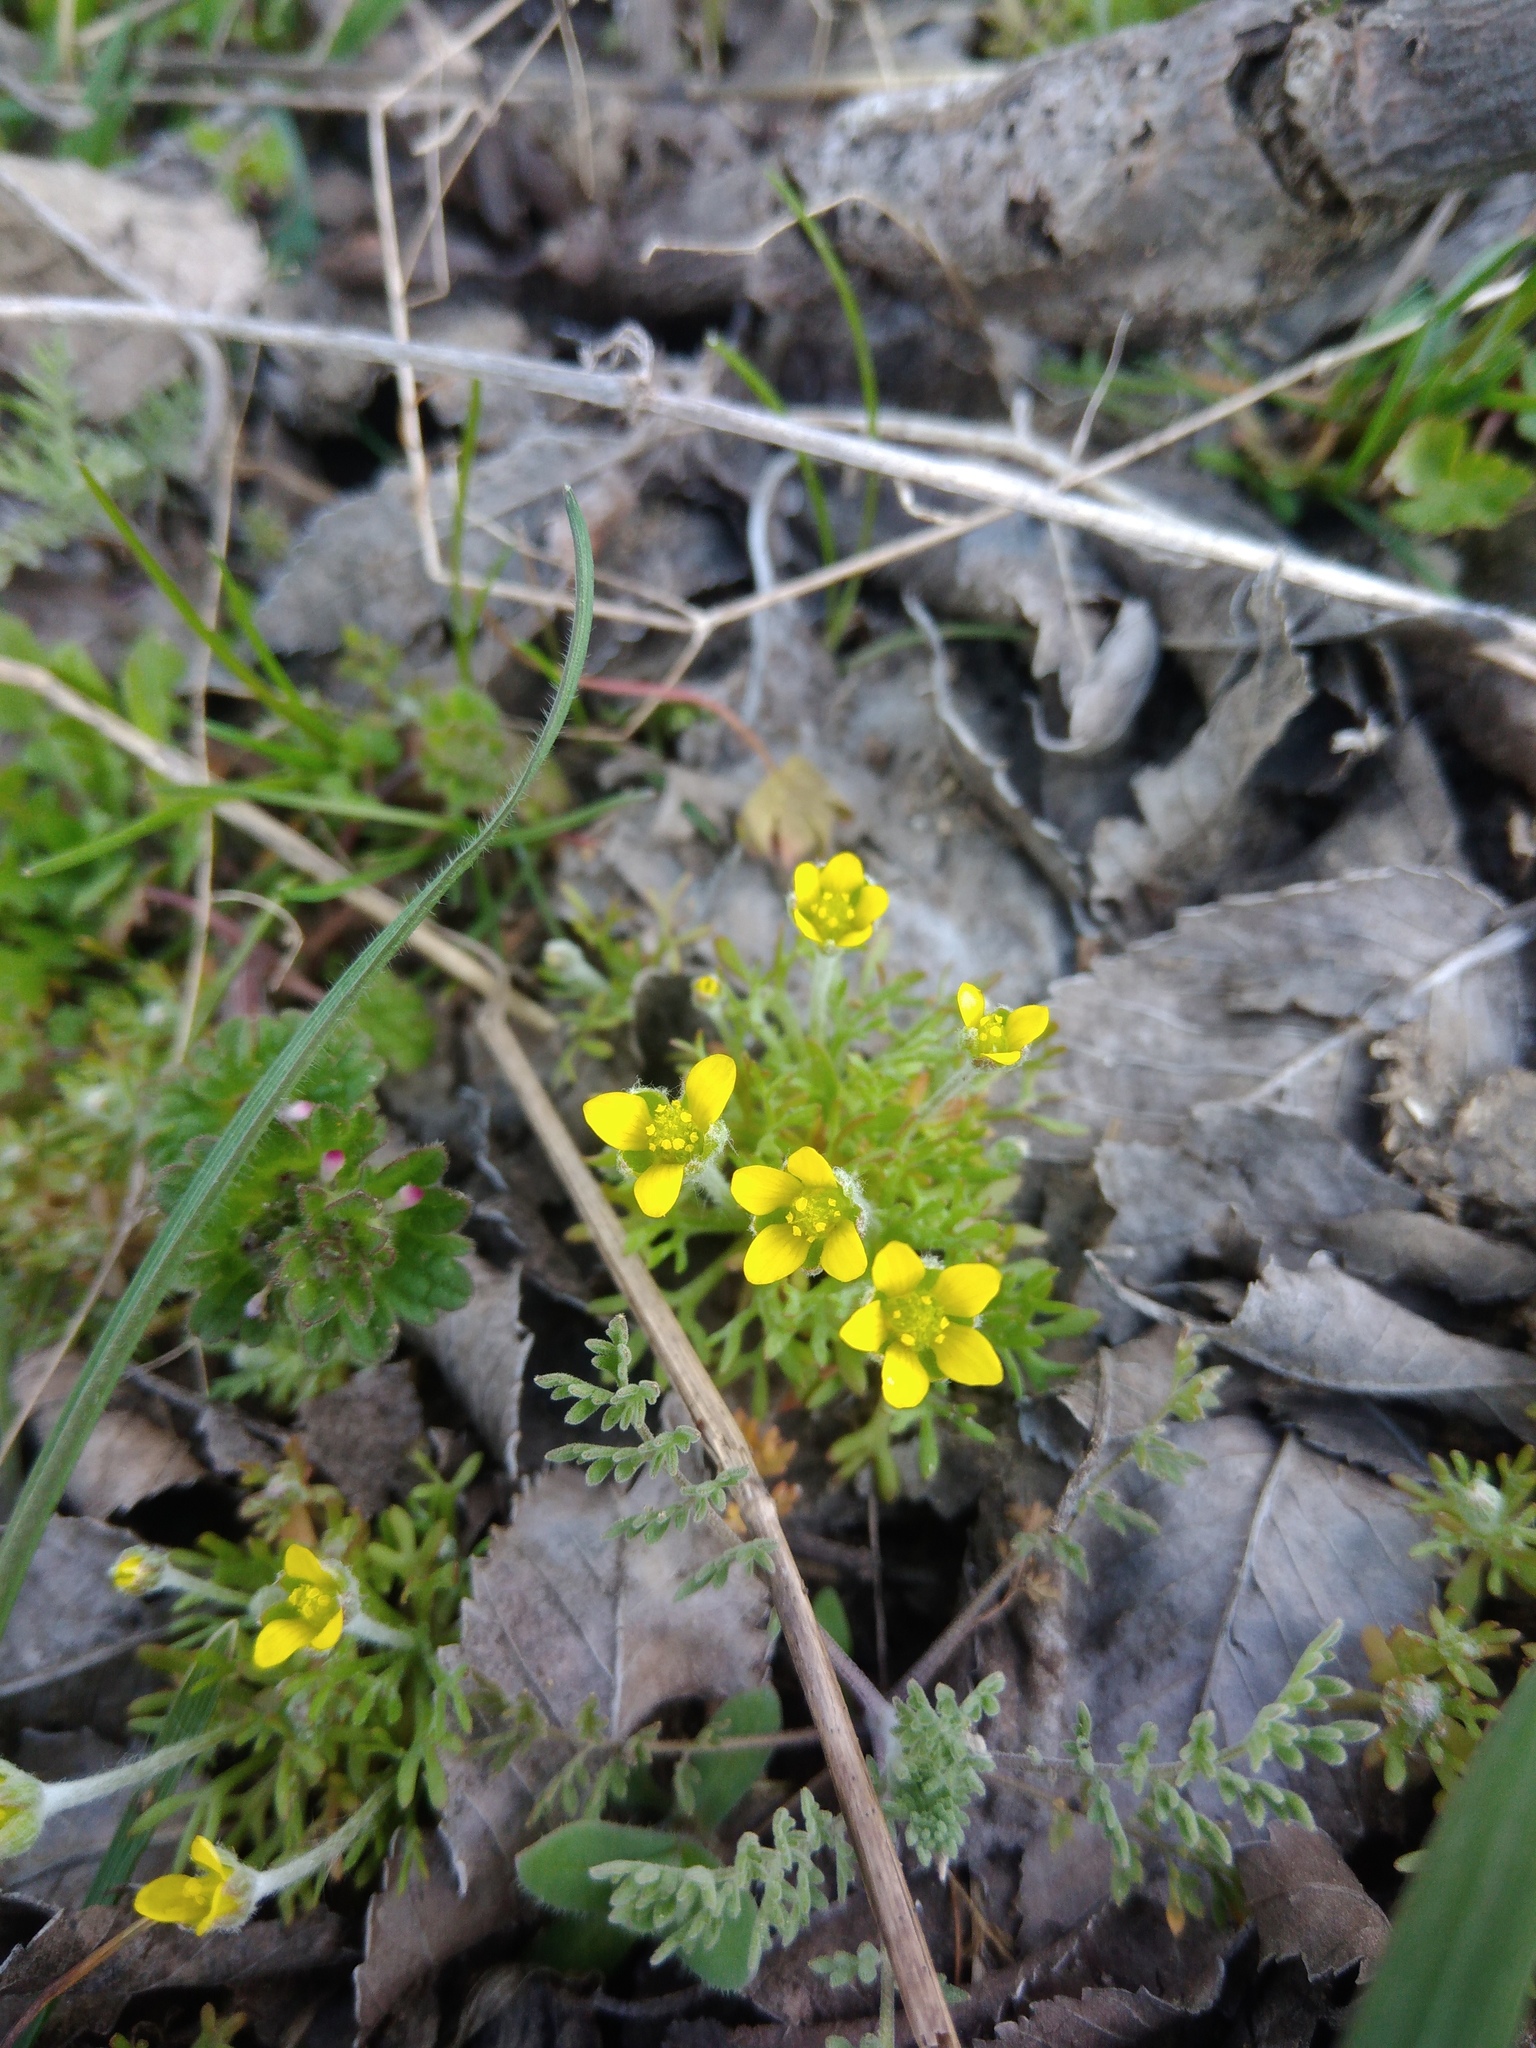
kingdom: Plantae
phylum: Tracheophyta
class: Magnoliopsida
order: Ranunculales
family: Ranunculaceae
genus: Ceratocephala
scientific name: Ceratocephala orthoceras
